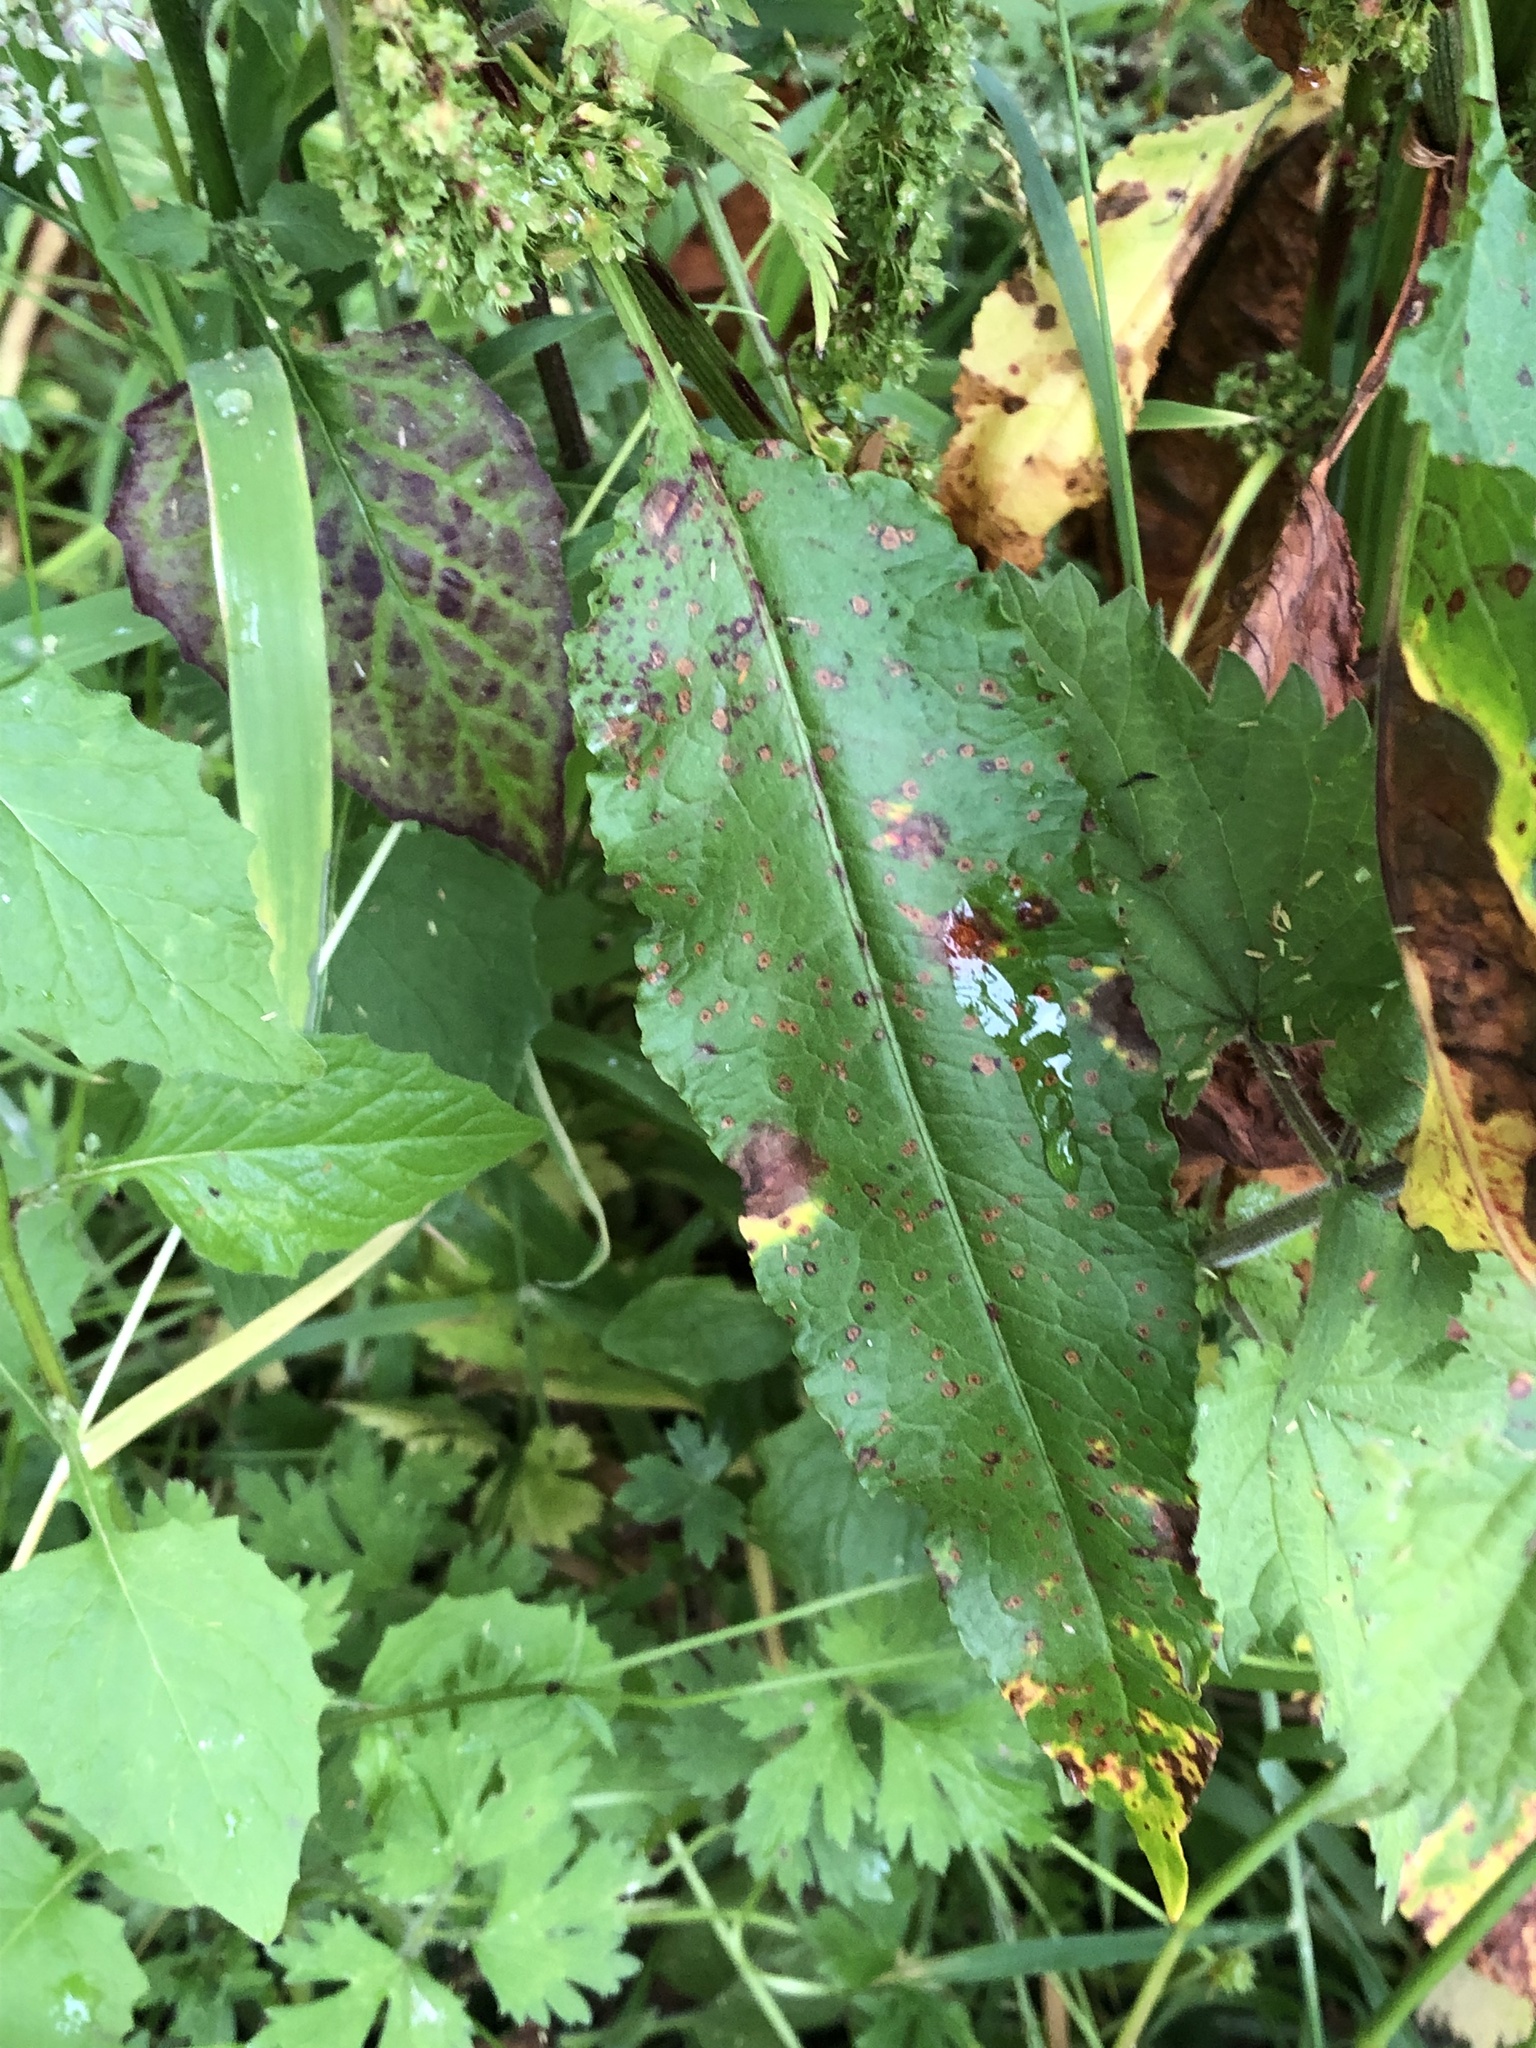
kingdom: Plantae
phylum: Tracheophyta
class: Magnoliopsida
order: Caryophyllales
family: Polygonaceae
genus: Rumex
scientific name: Rumex obtusifolius
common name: Bitter dock
